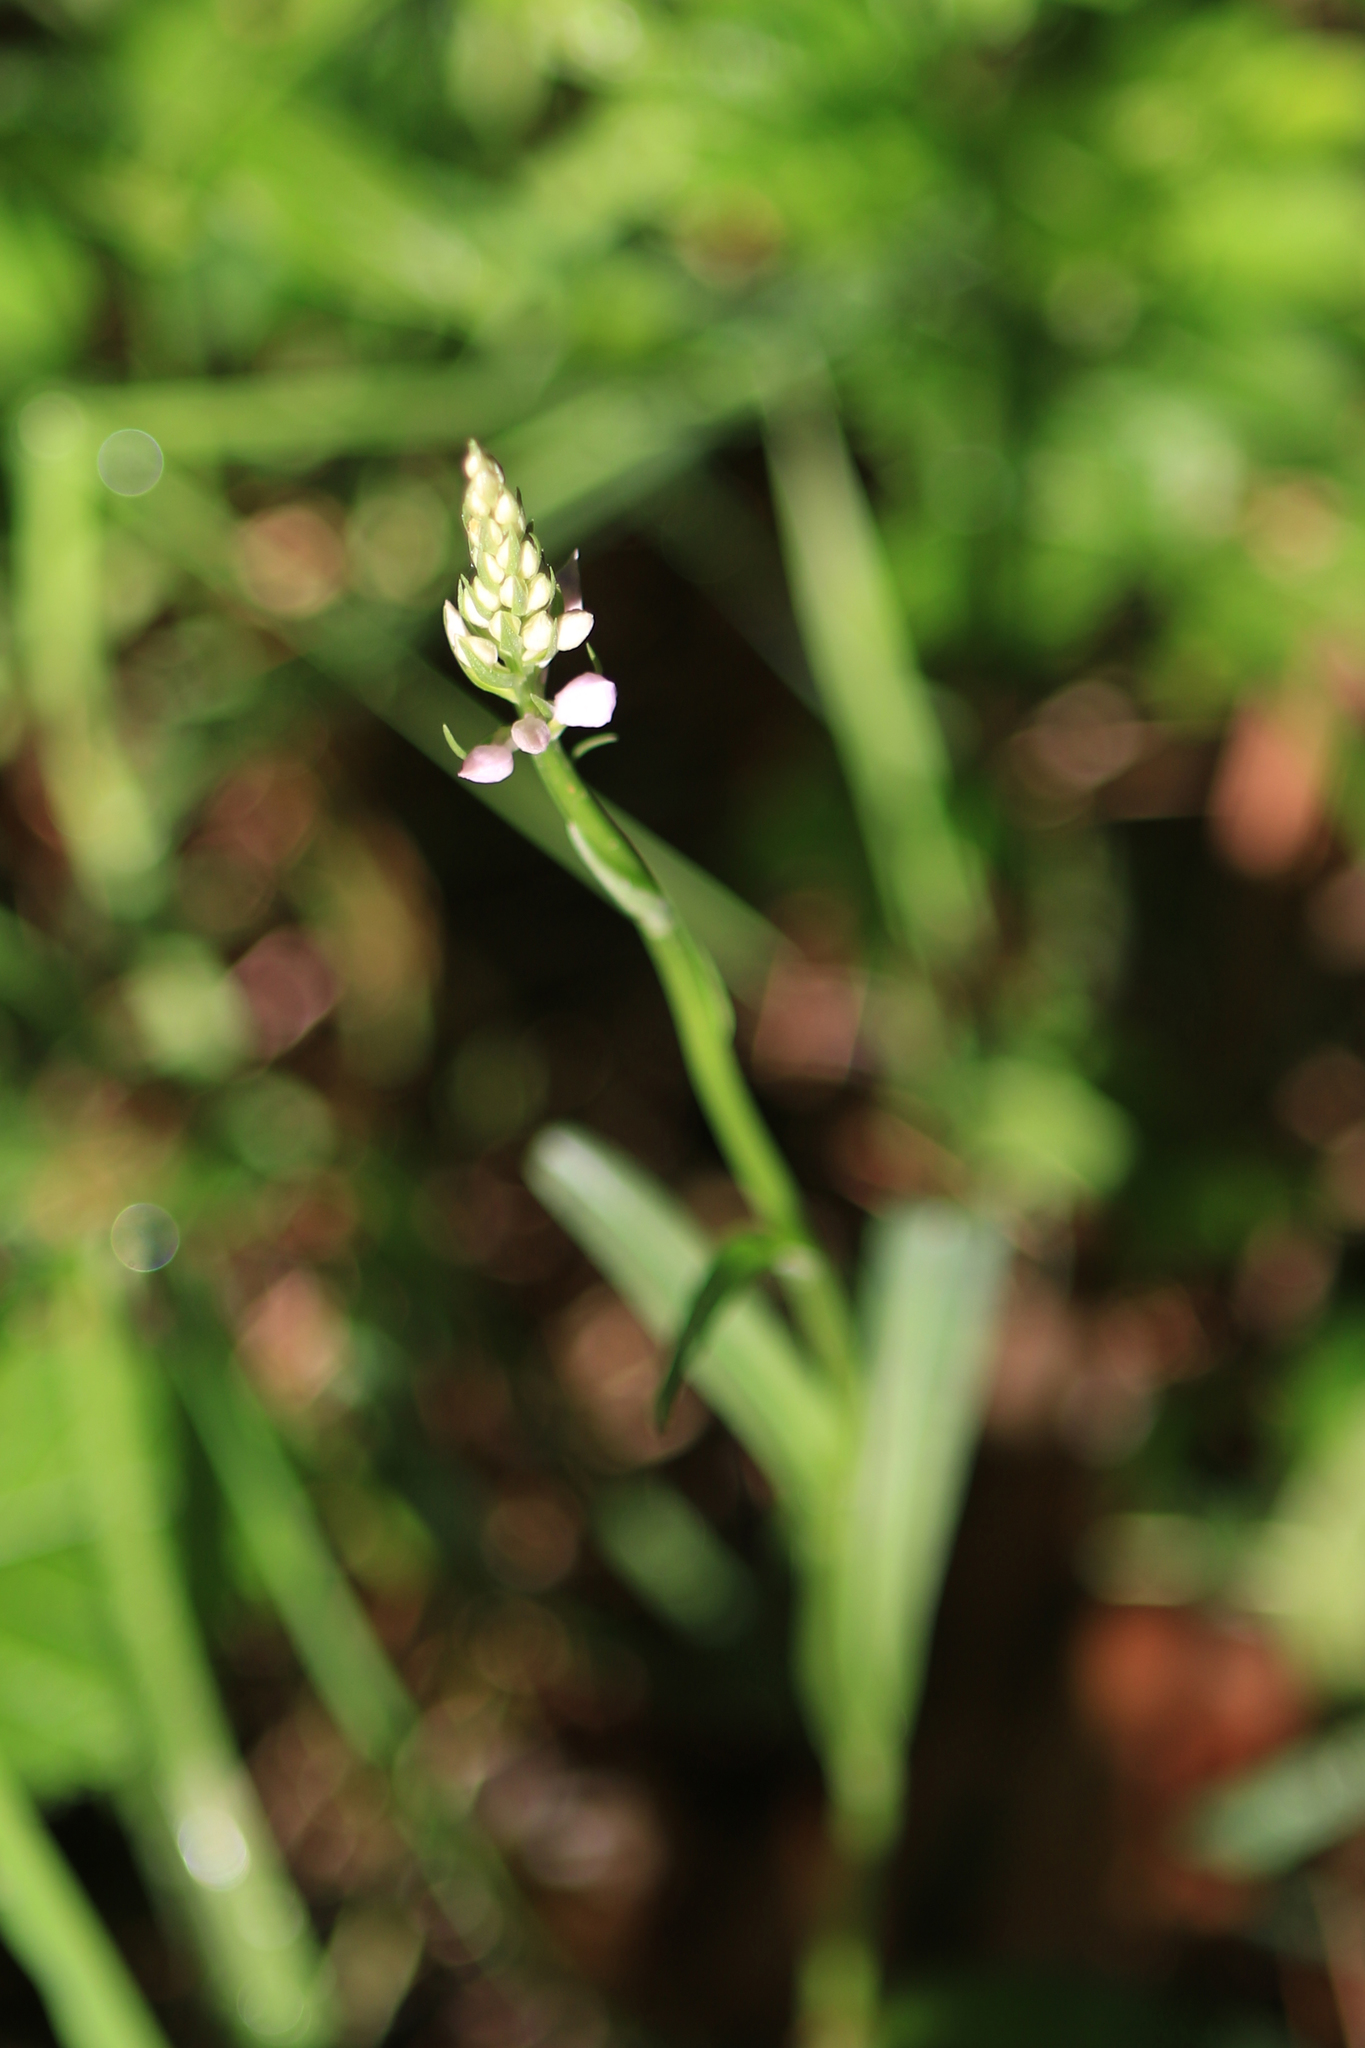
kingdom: Plantae
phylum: Tracheophyta
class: Liliopsida
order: Asparagales
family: Orchidaceae
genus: Dactylorhiza
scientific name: Dactylorhiza maculata
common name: Heath spotted-orchid
